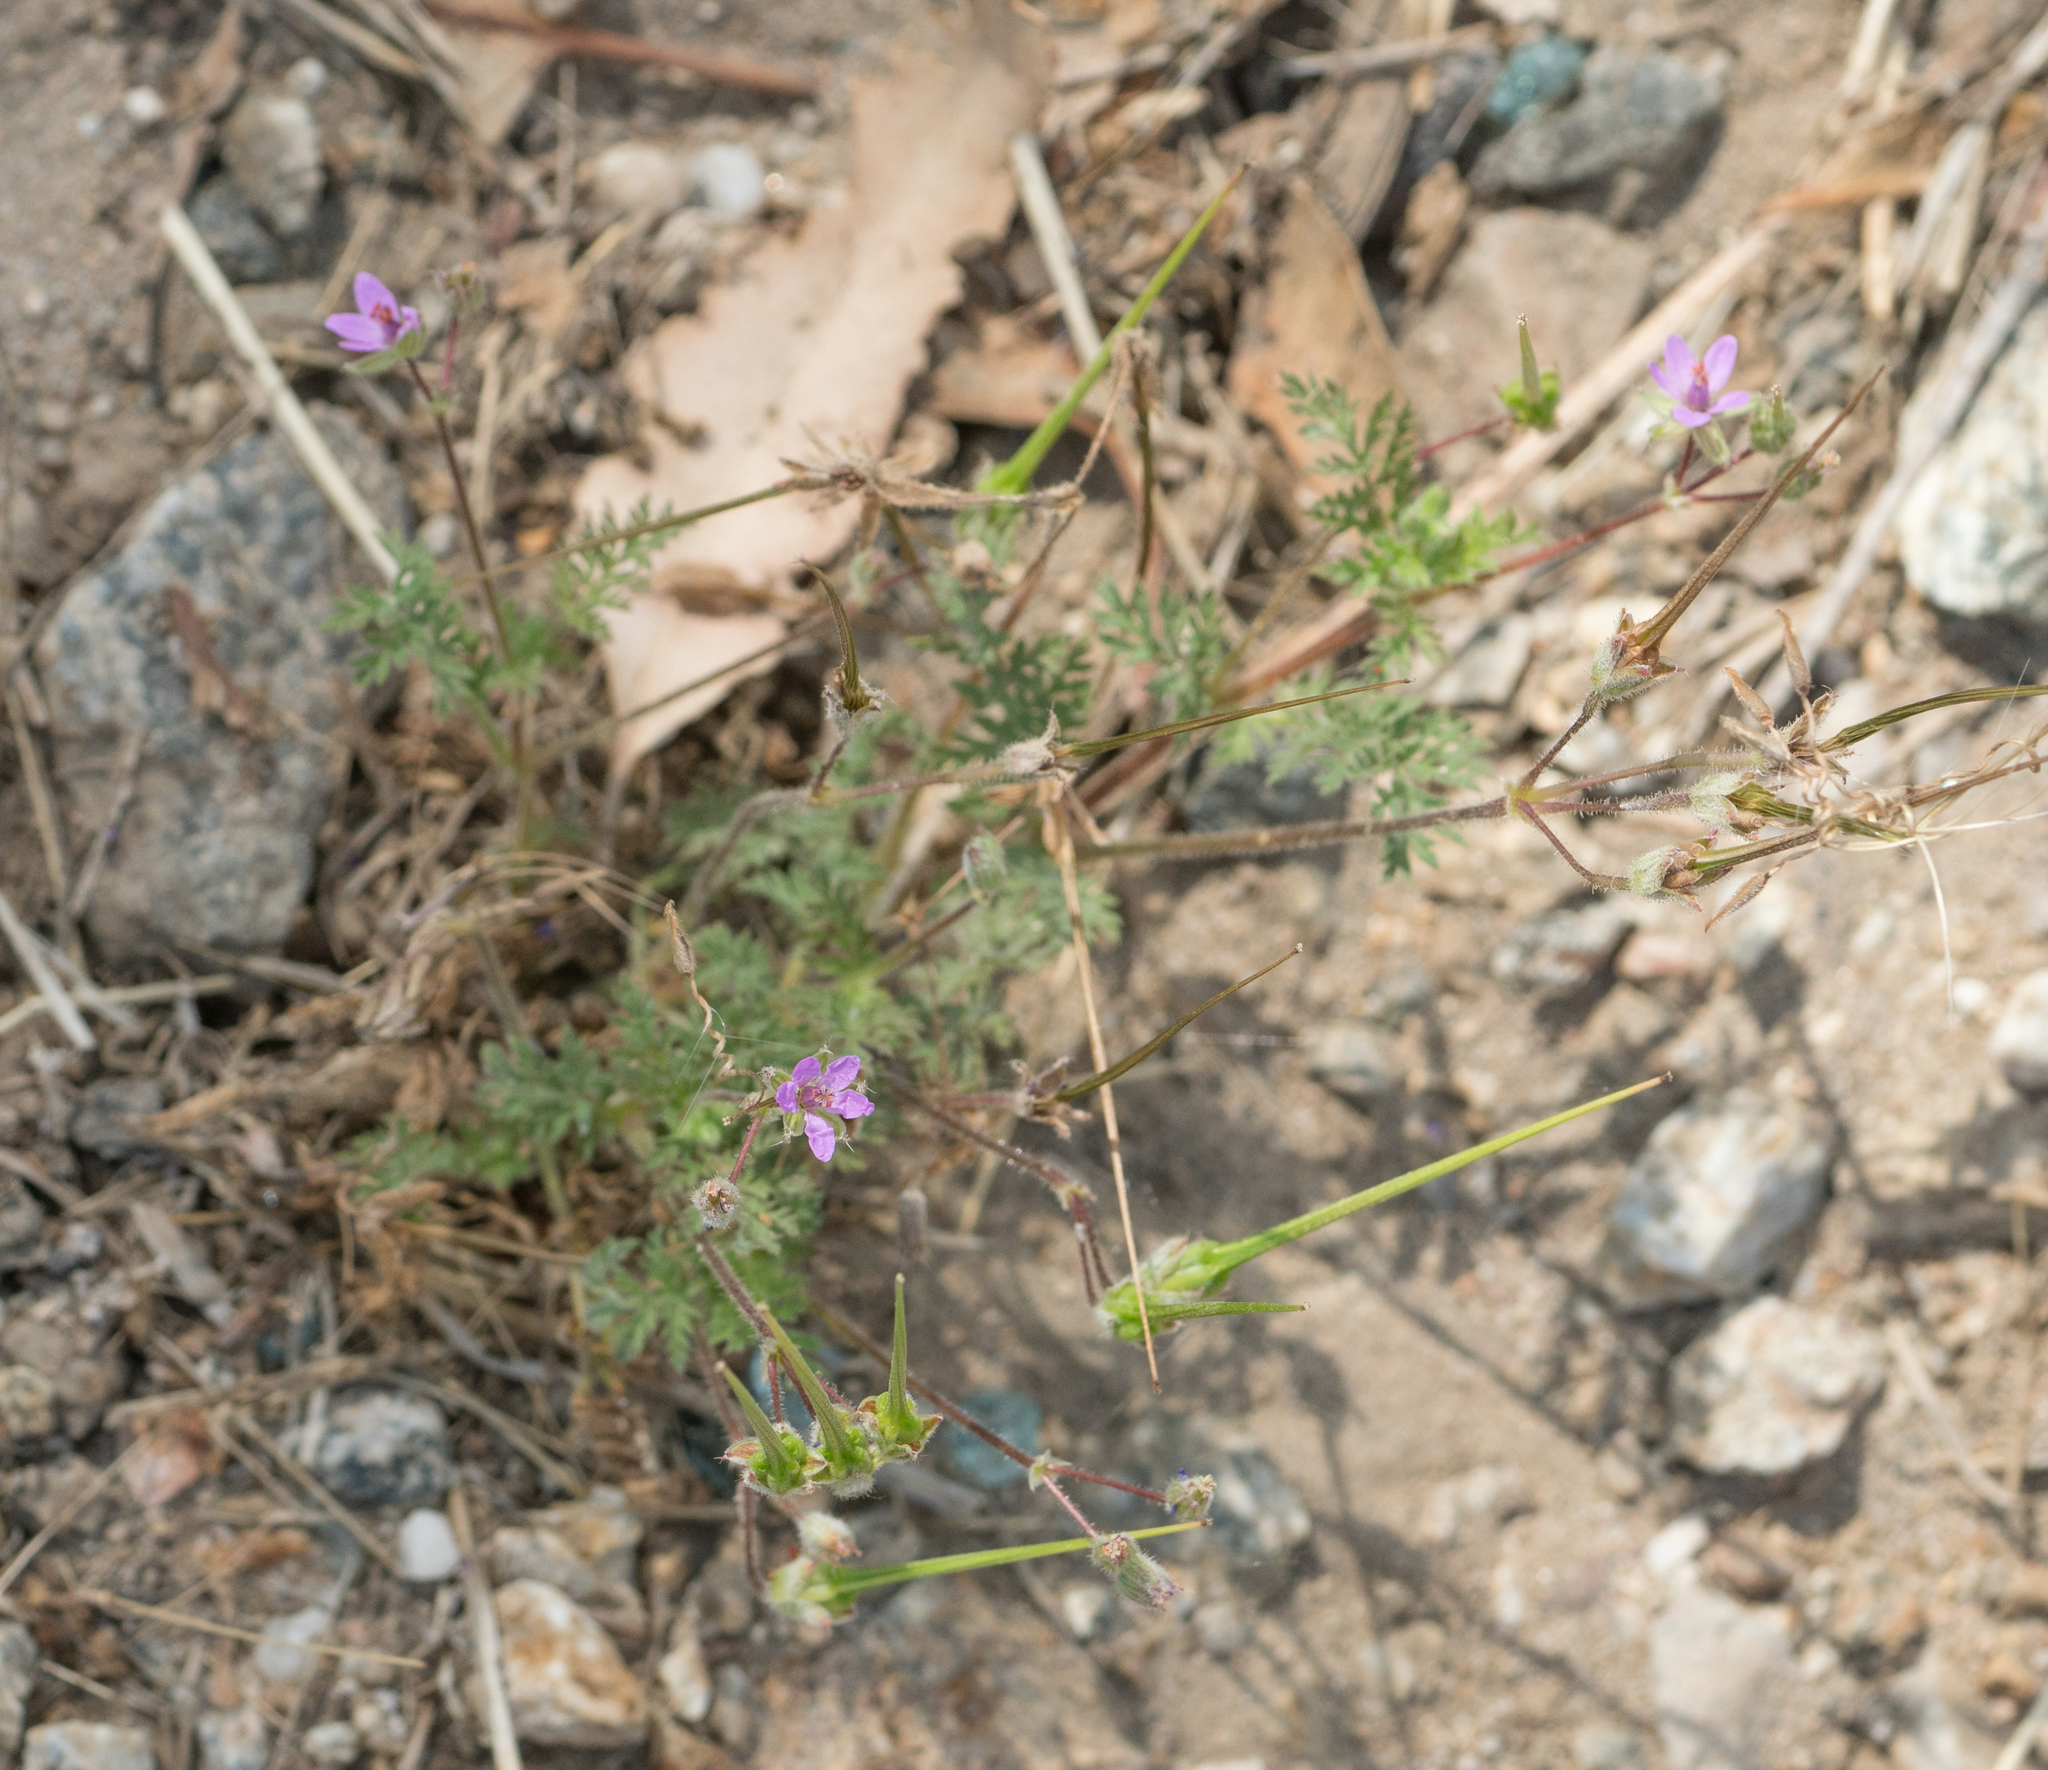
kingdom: Plantae
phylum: Tracheophyta
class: Magnoliopsida
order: Geraniales
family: Geraniaceae
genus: Erodium
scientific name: Erodium cicutarium
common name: Common stork's-bill
